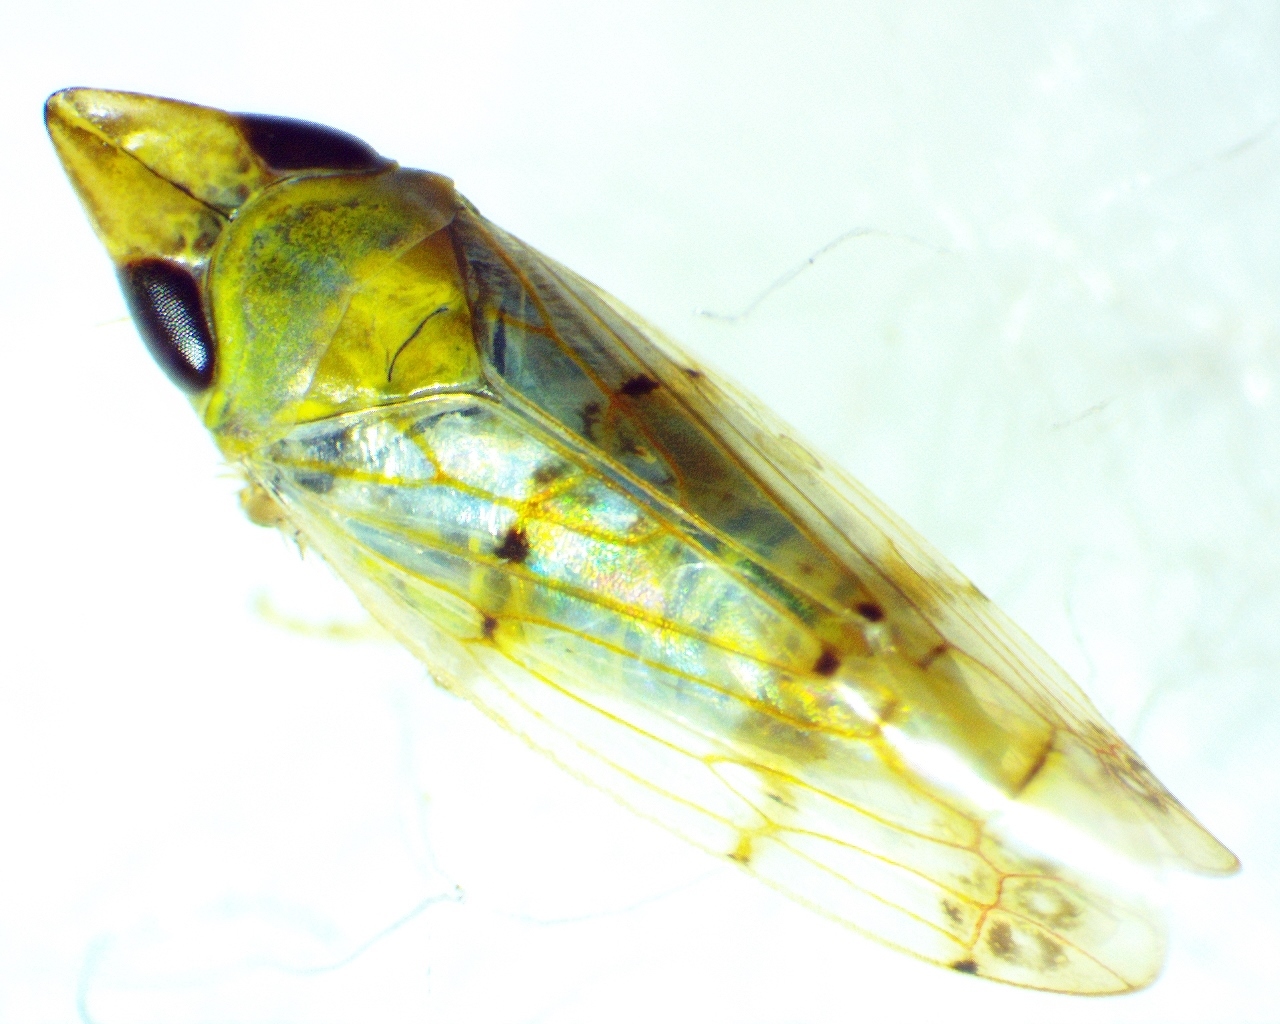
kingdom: Animalia
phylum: Arthropoda
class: Insecta
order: Hemiptera
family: Cicadellidae
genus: Japananus
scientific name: Japananus hyalinus
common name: The japanese maple leafhopper
